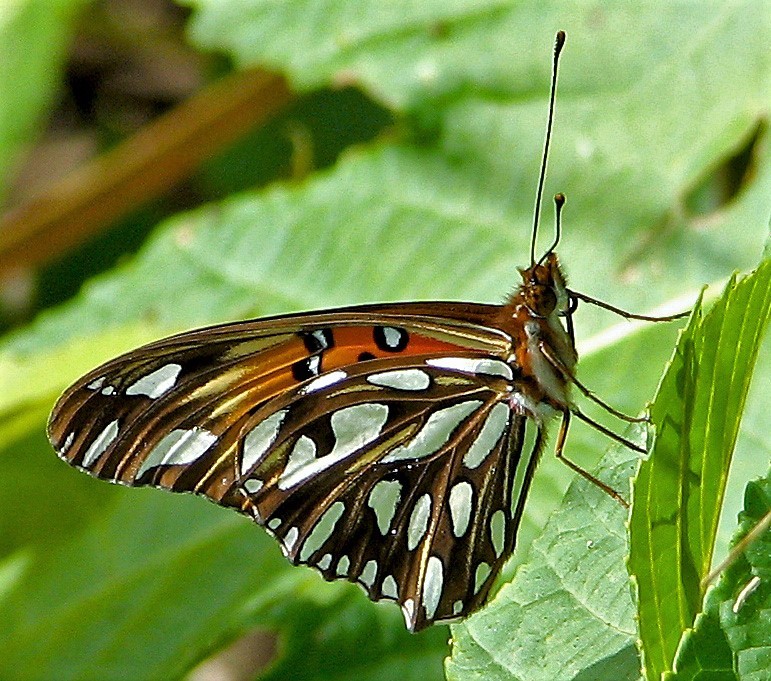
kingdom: Animalia
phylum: Arthropoda
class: Insecta
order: Lepidoptera
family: Nymphalidae
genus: Dione
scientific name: Dione vanillae
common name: Gulf fritillary
